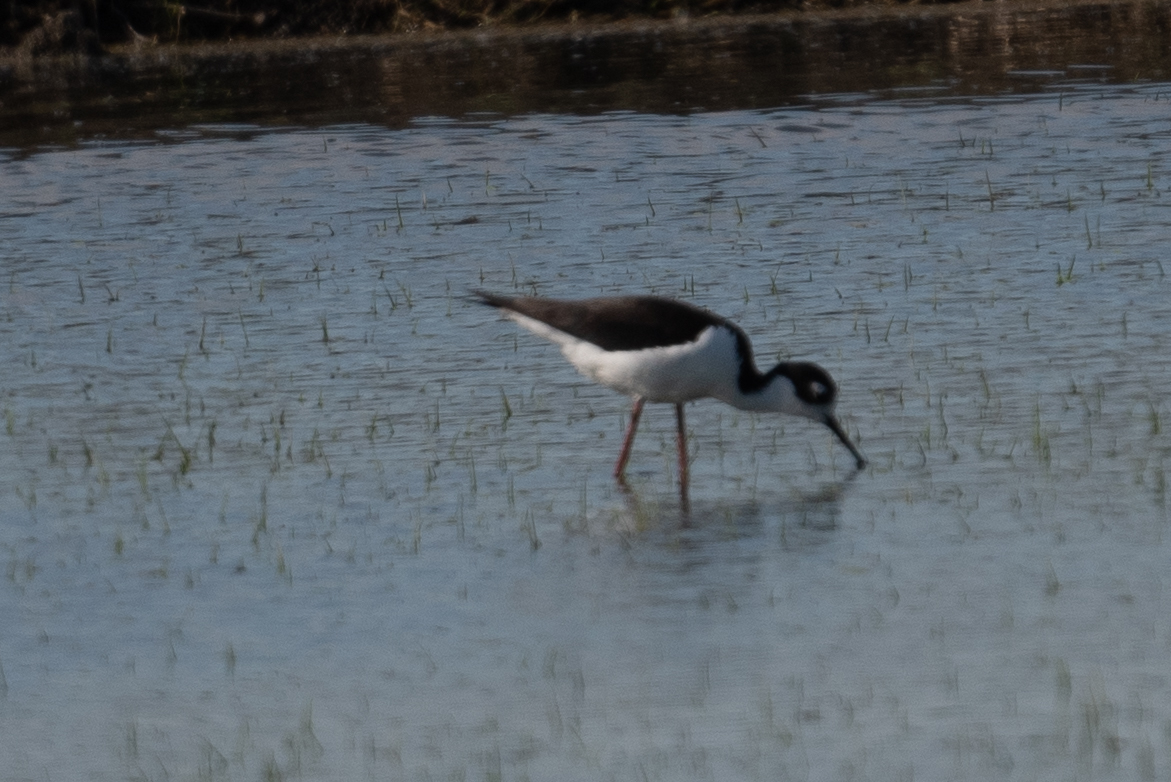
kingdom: Animalia
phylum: Chordata
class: Aves
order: Charadriiformes
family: Recurvirostridae
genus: Himantopus
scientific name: Himantopus mexicanus
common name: Black-necked stilt
